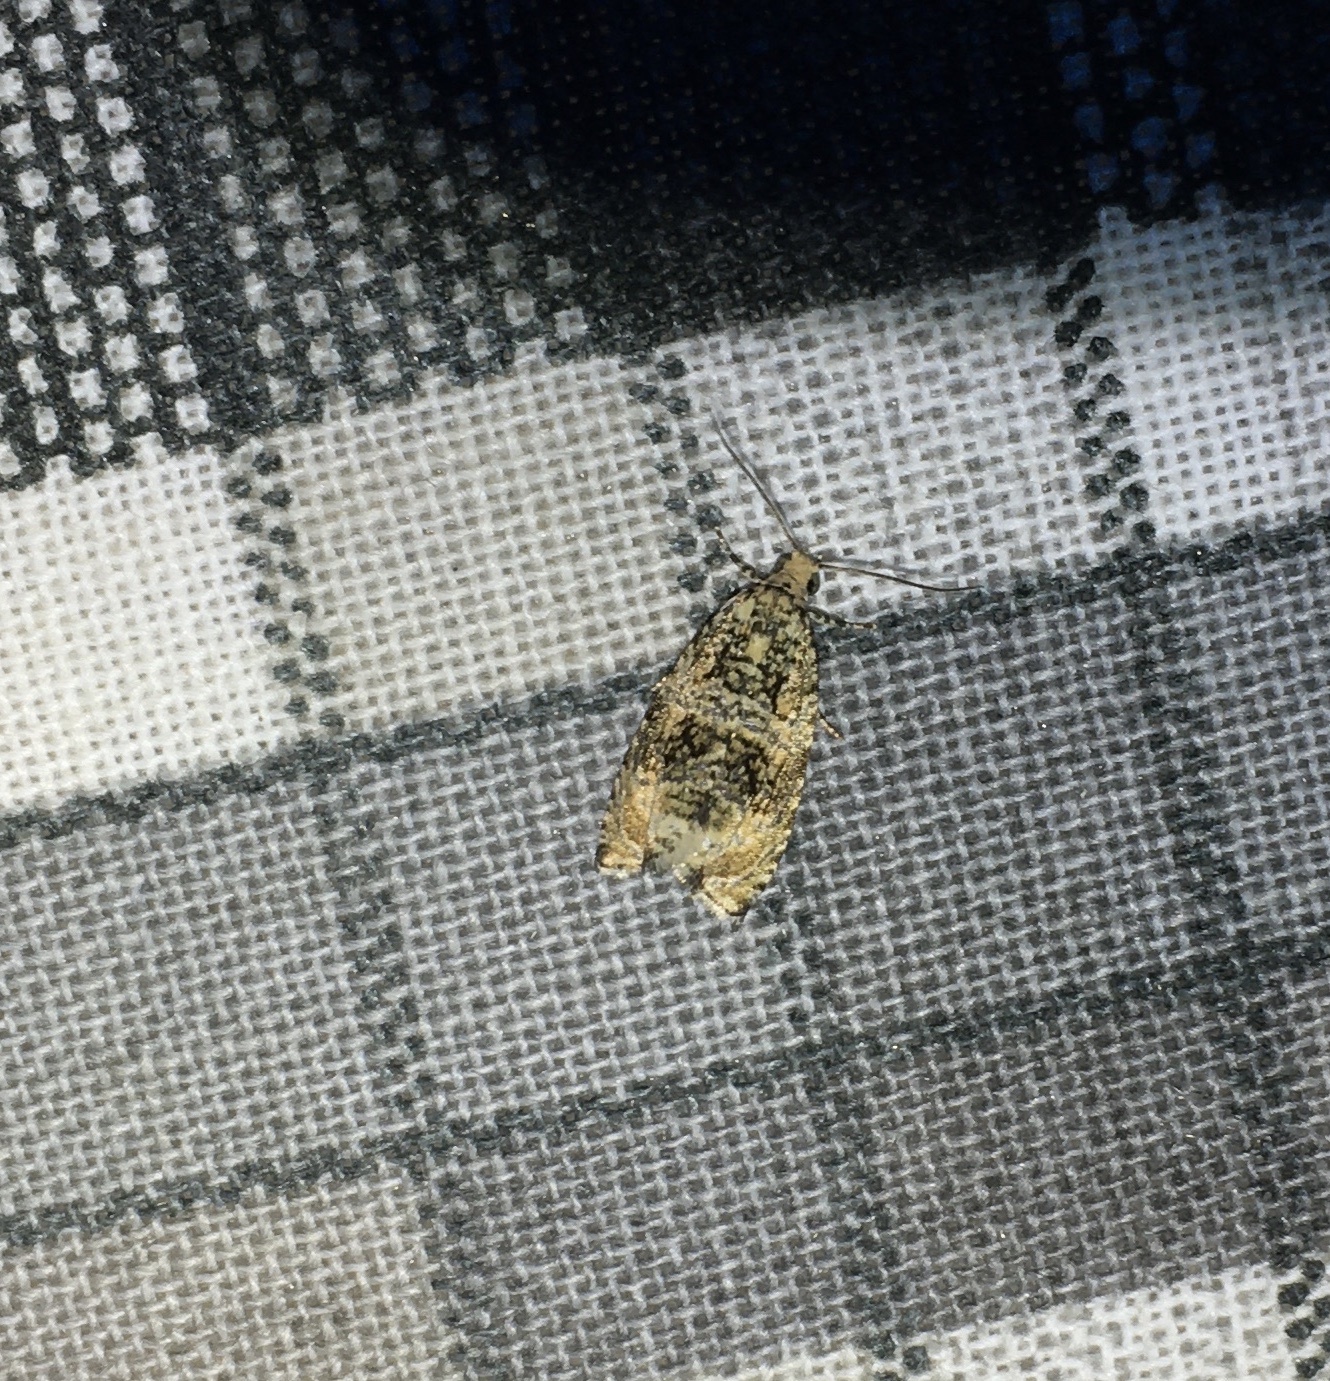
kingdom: Animalia
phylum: Arthropoda
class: Insecta
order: Lepidoptera
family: Tortricidae
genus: Syricoris
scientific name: Syricoris lacunana
